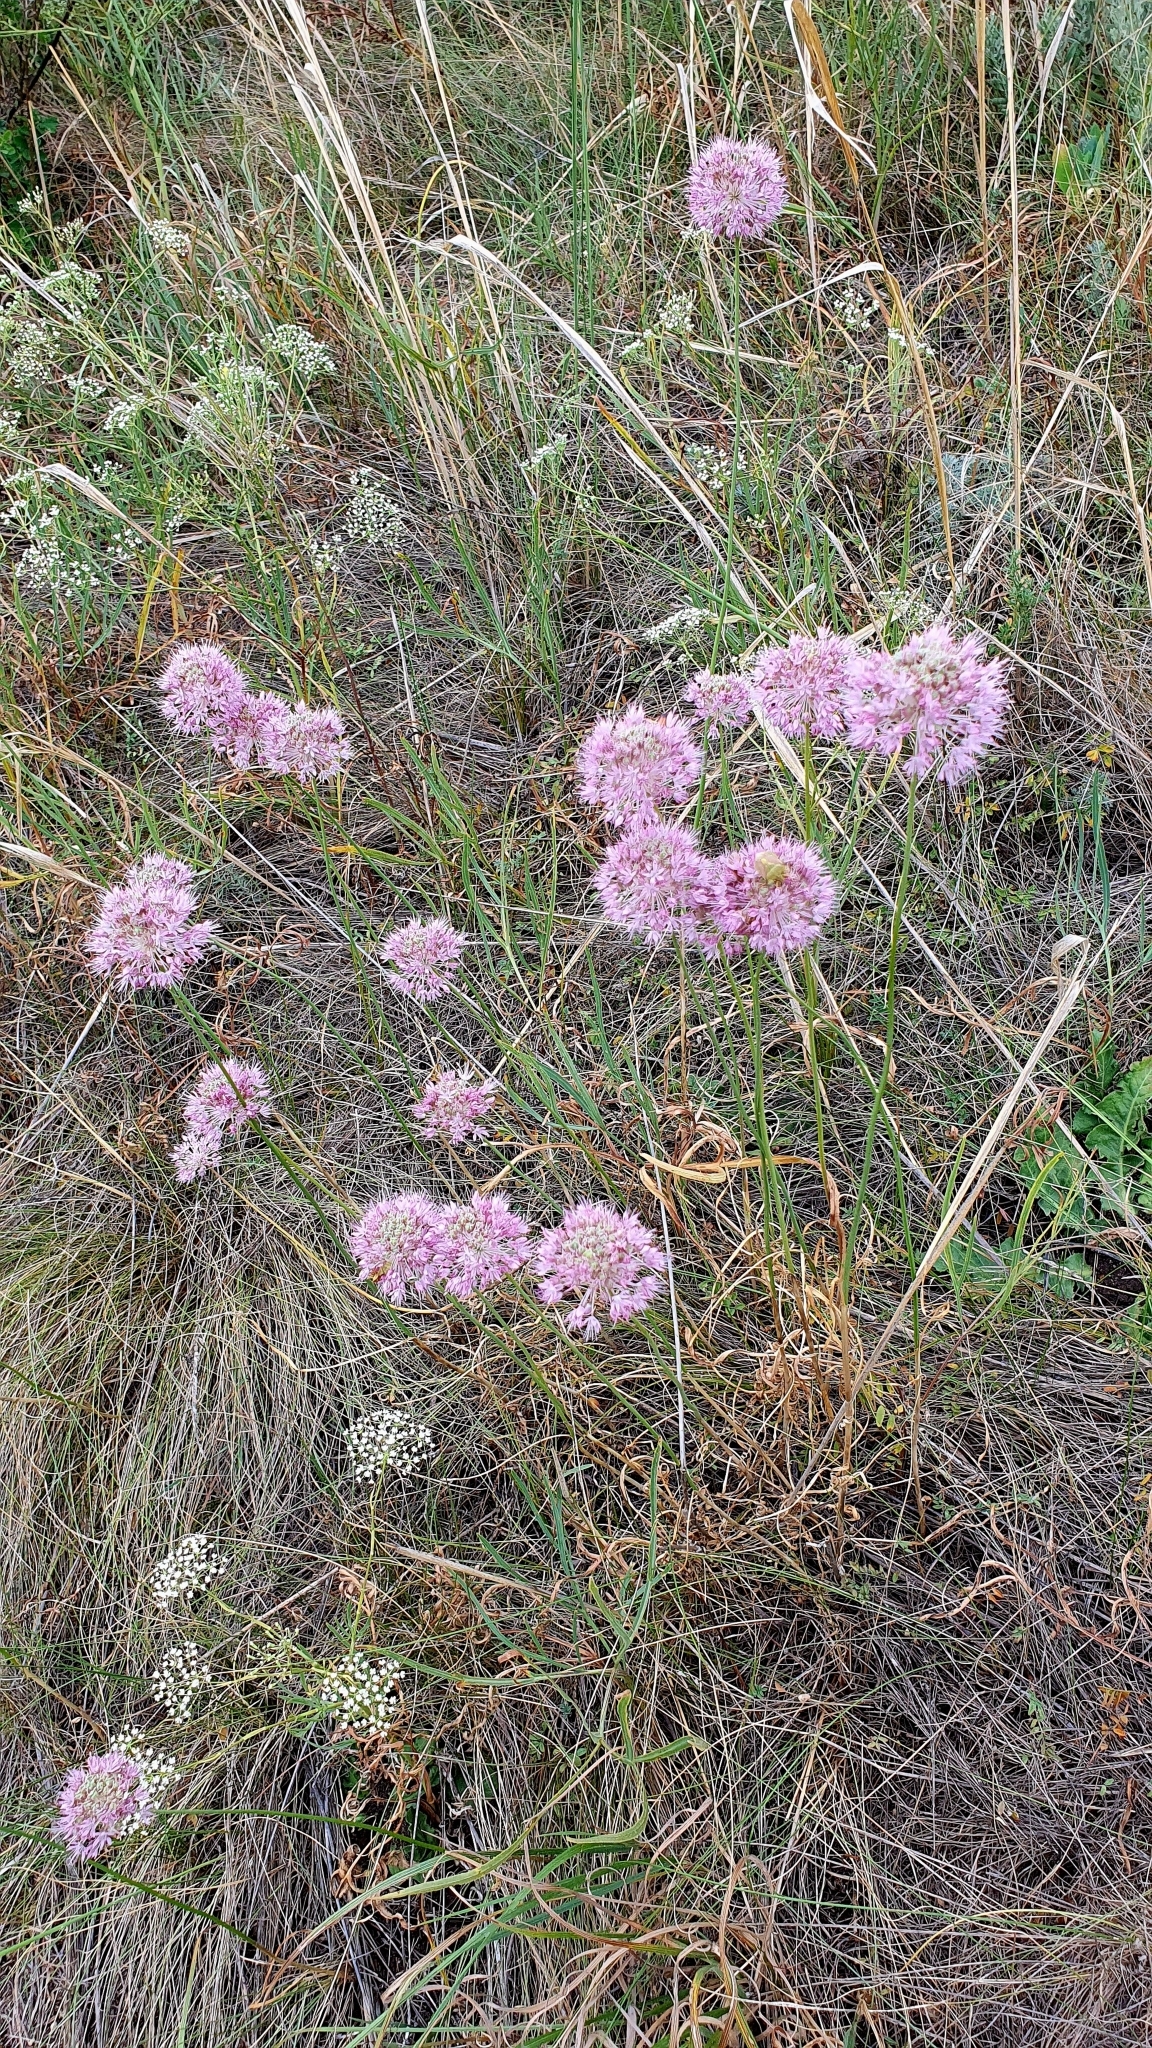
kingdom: Plantae
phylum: Tracheophyta
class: Liliopsida
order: Asparagales
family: Amaryllidaceae
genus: Allium
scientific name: Allium lineare
